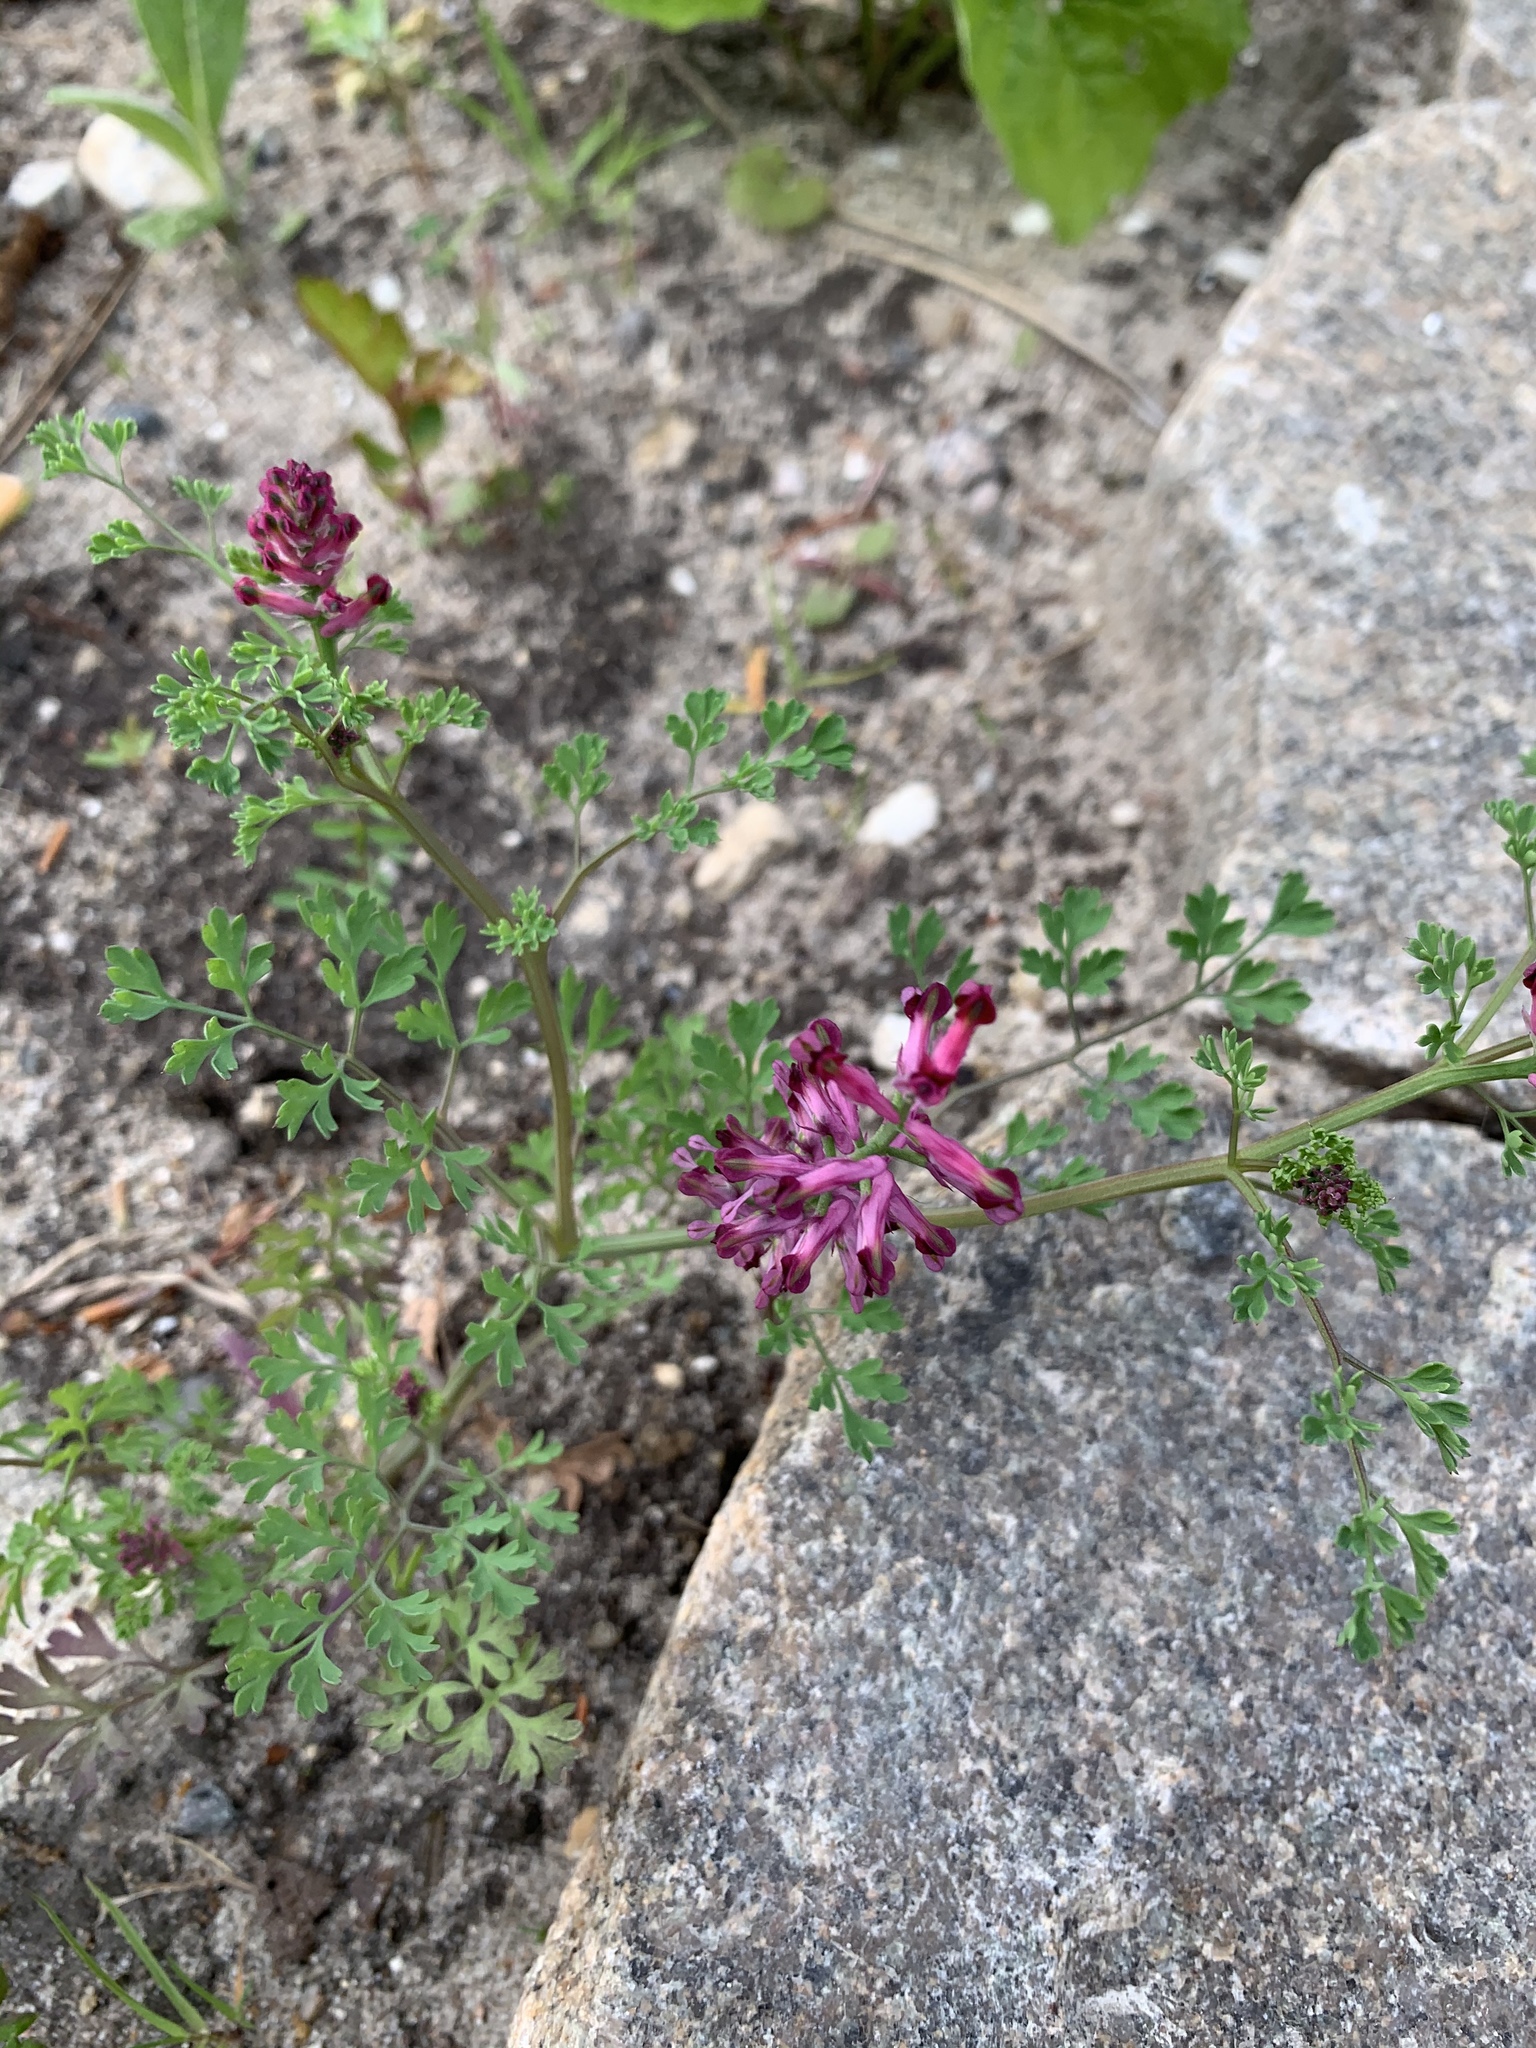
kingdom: Plantae
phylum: Tracheophyta
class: Magnoliopsida
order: Ranunculales
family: Papaveraceae
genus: Fumaria
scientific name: Fumaria officinalis
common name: Common fumitory
